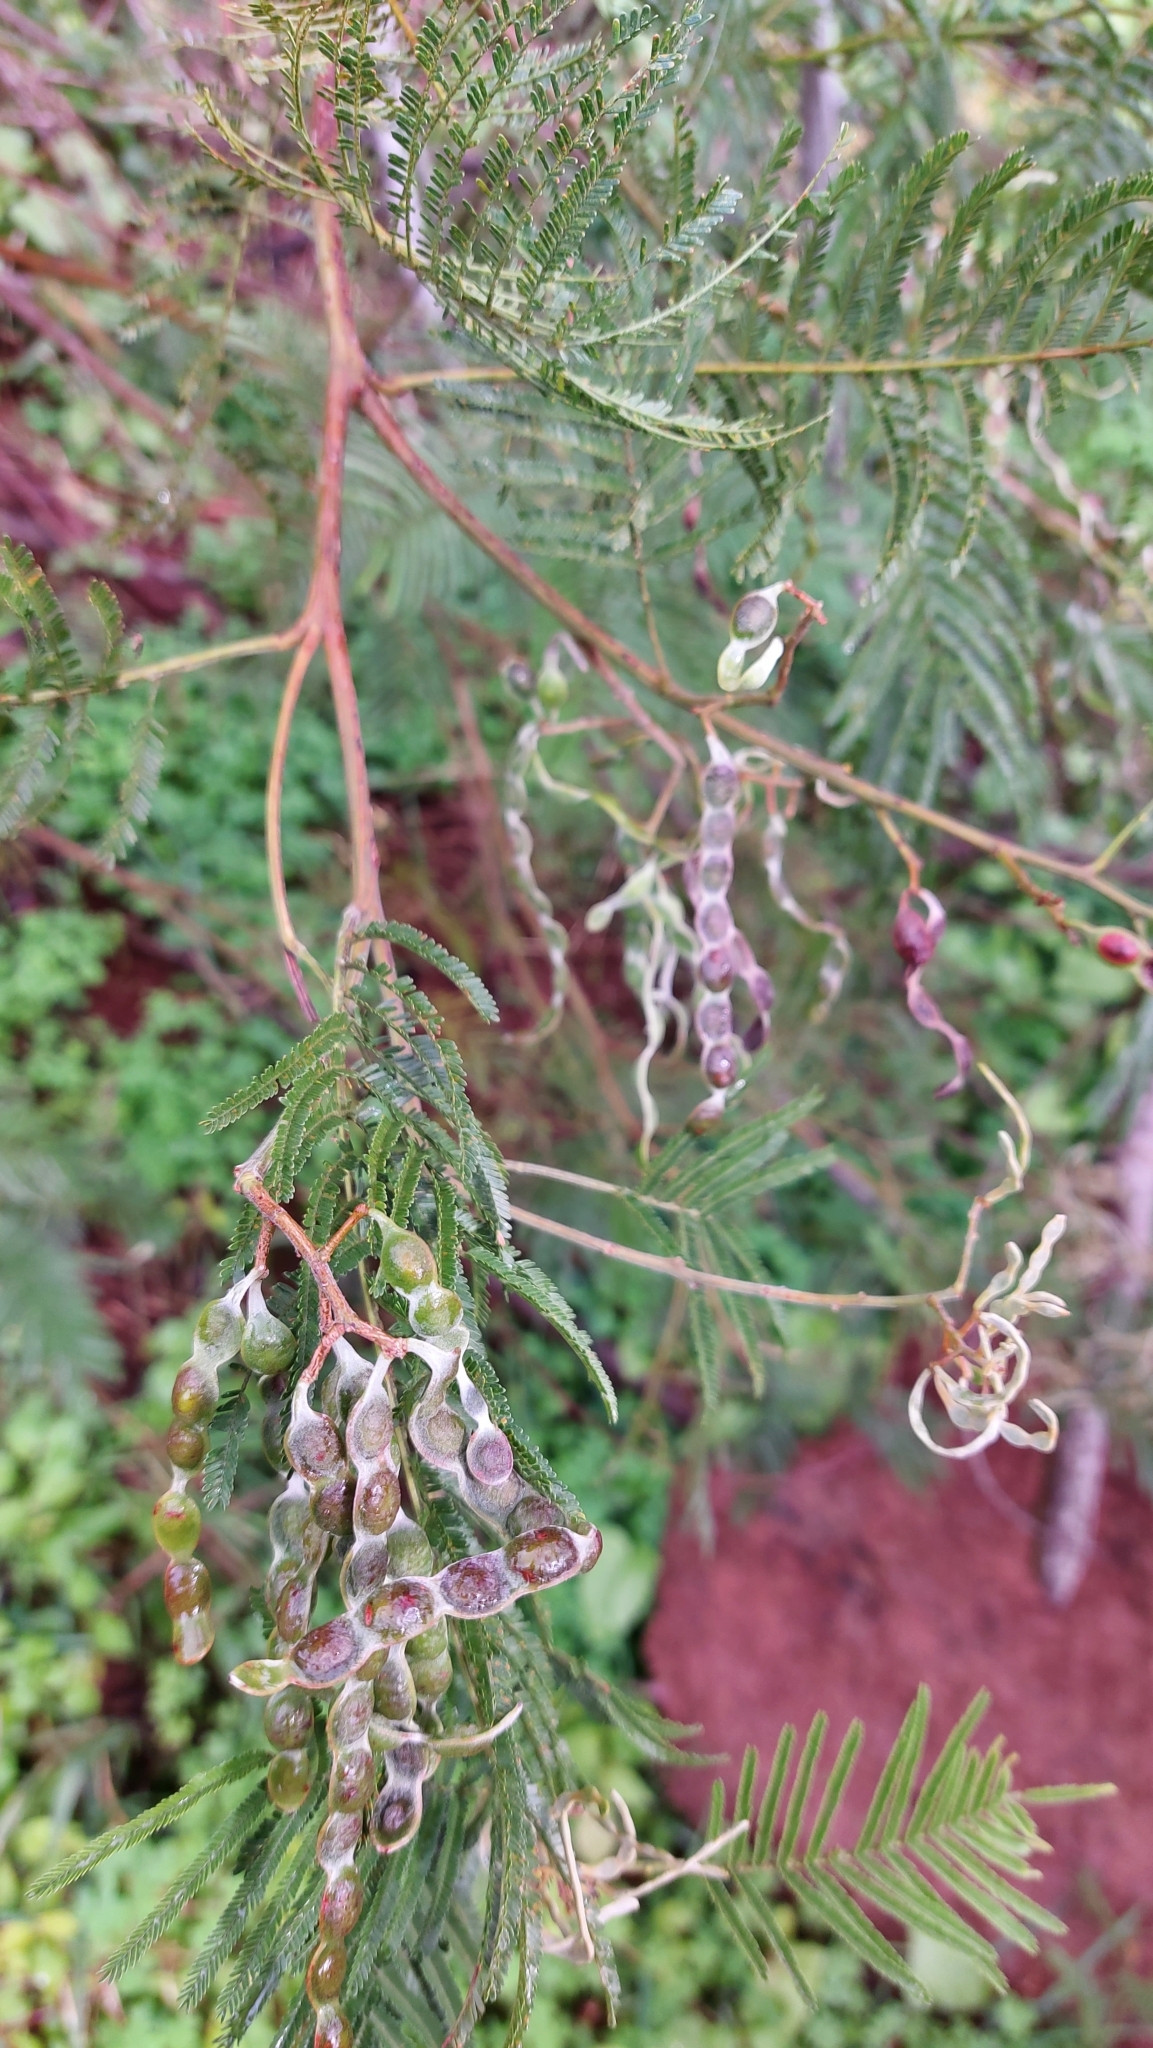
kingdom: Plantae
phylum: Tracheophyta
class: Magnoliopsida
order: Fabales
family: Fabaceae
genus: Acacia
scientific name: Acacia mearnsii
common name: Black wattle
